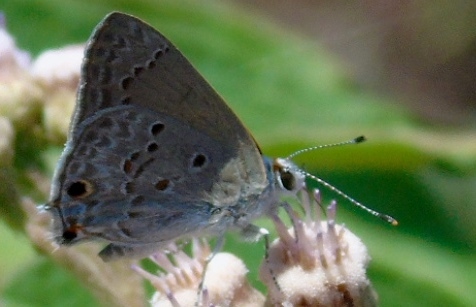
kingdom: Animalia
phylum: Arthropoda
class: Insecta
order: Lepidoptera
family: Lycaenidae
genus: Callicista
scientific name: Callicista columella
